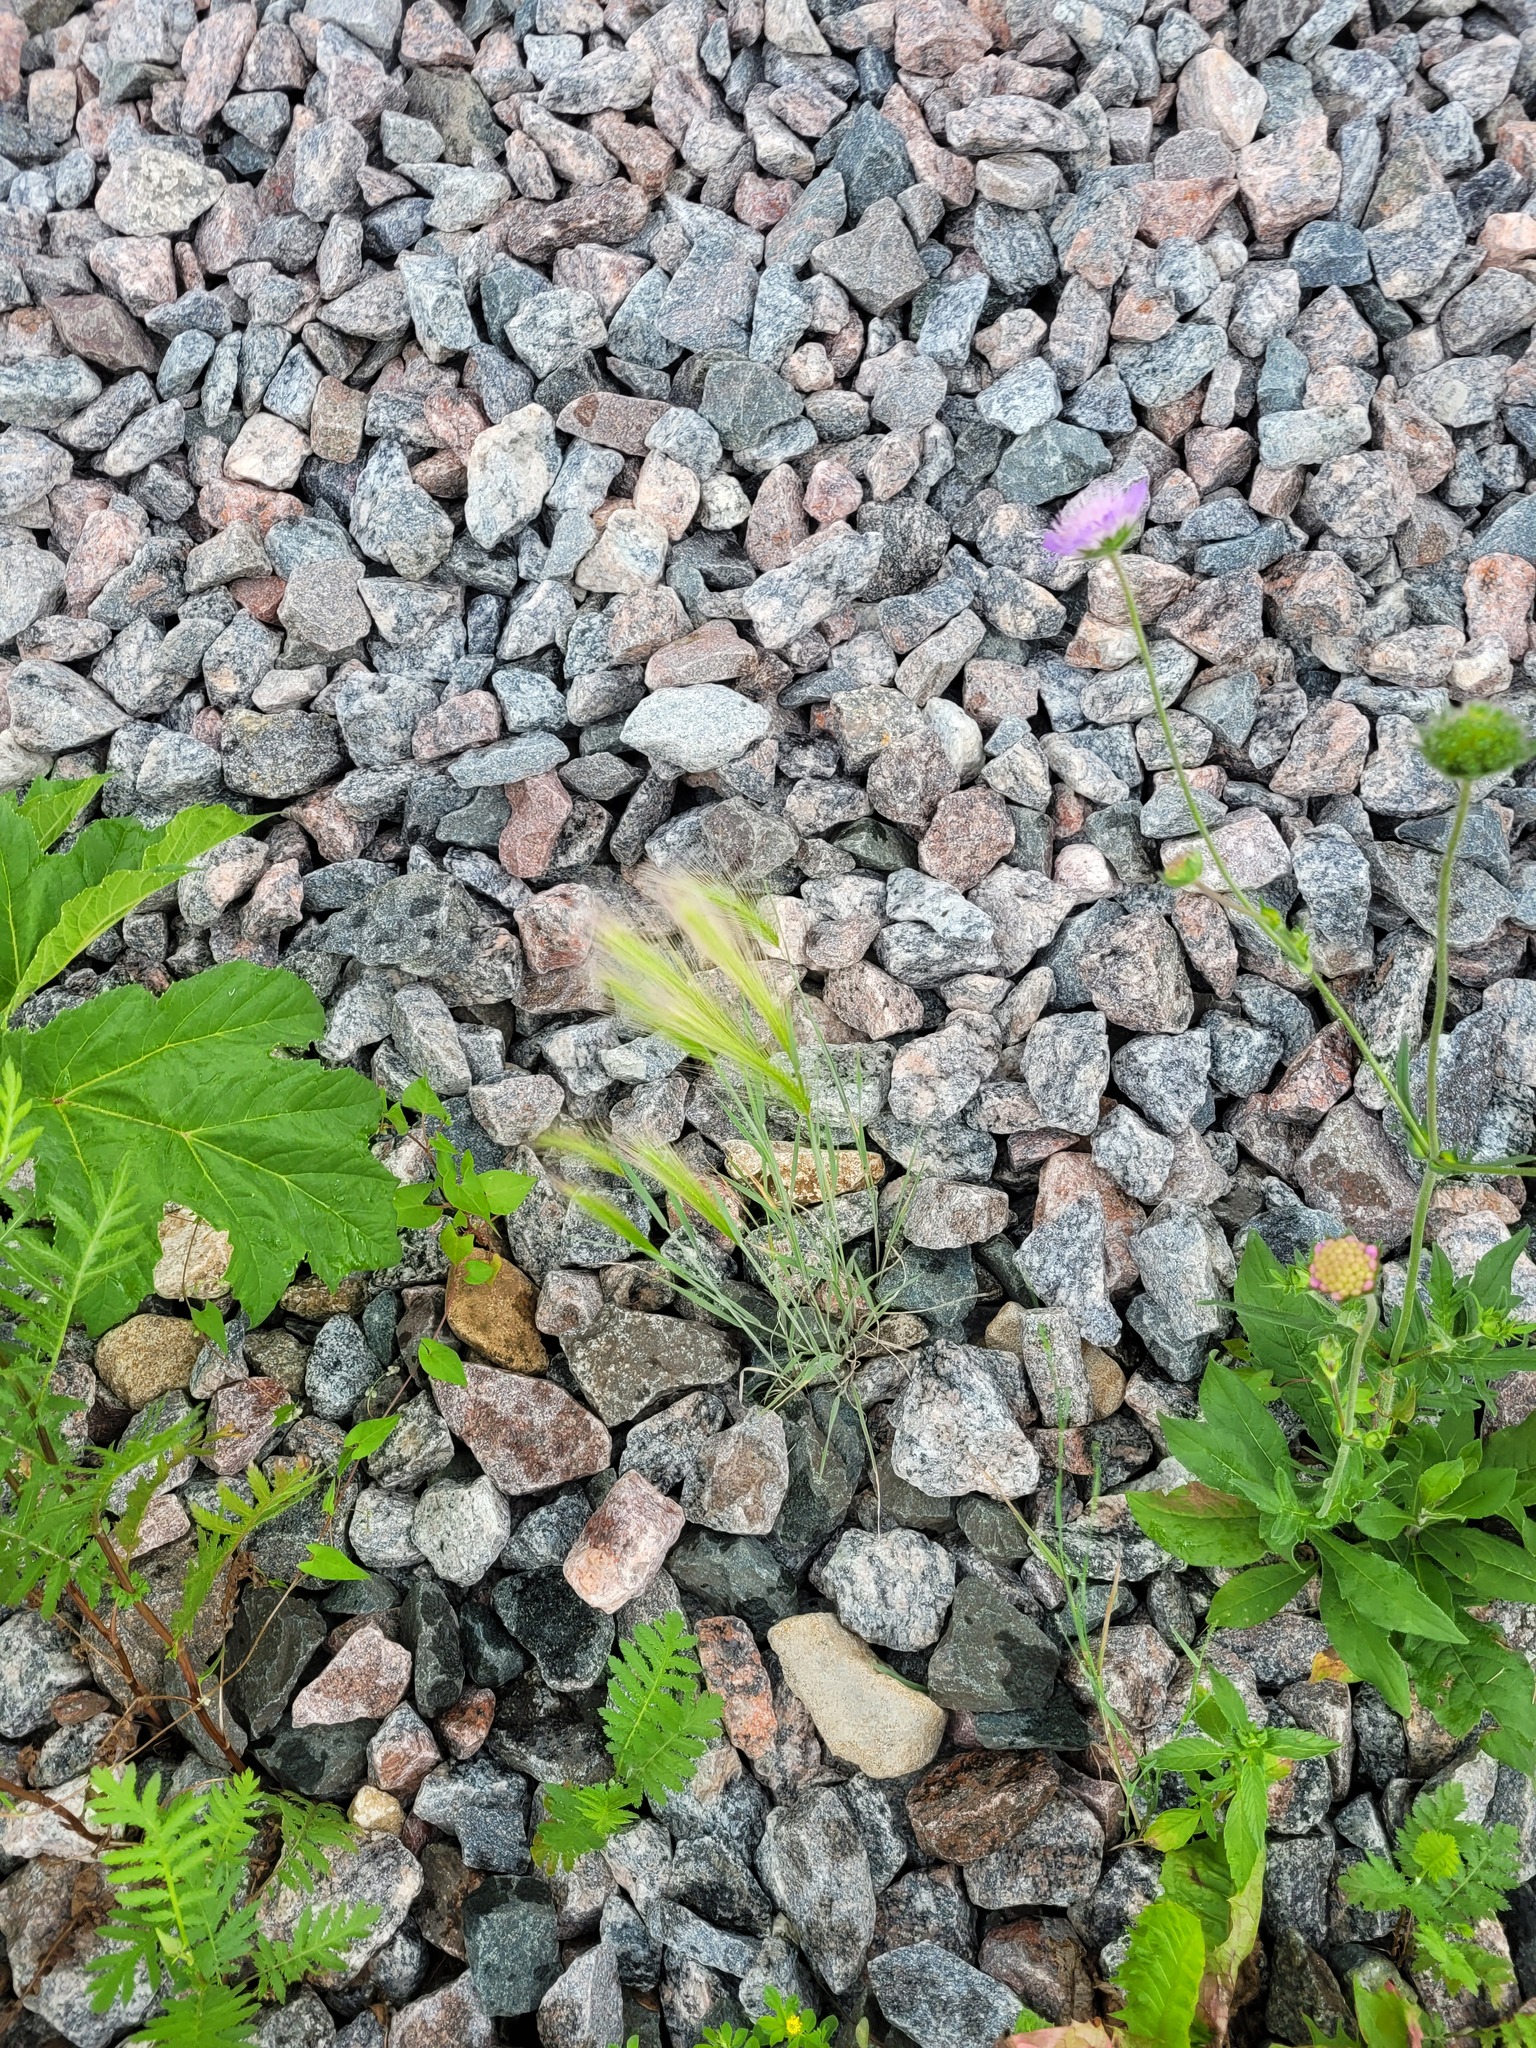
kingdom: Plantae
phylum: Tracheophyta
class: Liliopsida
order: Poales
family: Poaceae
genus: Hordeum
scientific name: Hordeum jubatum
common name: Foxtail barley
